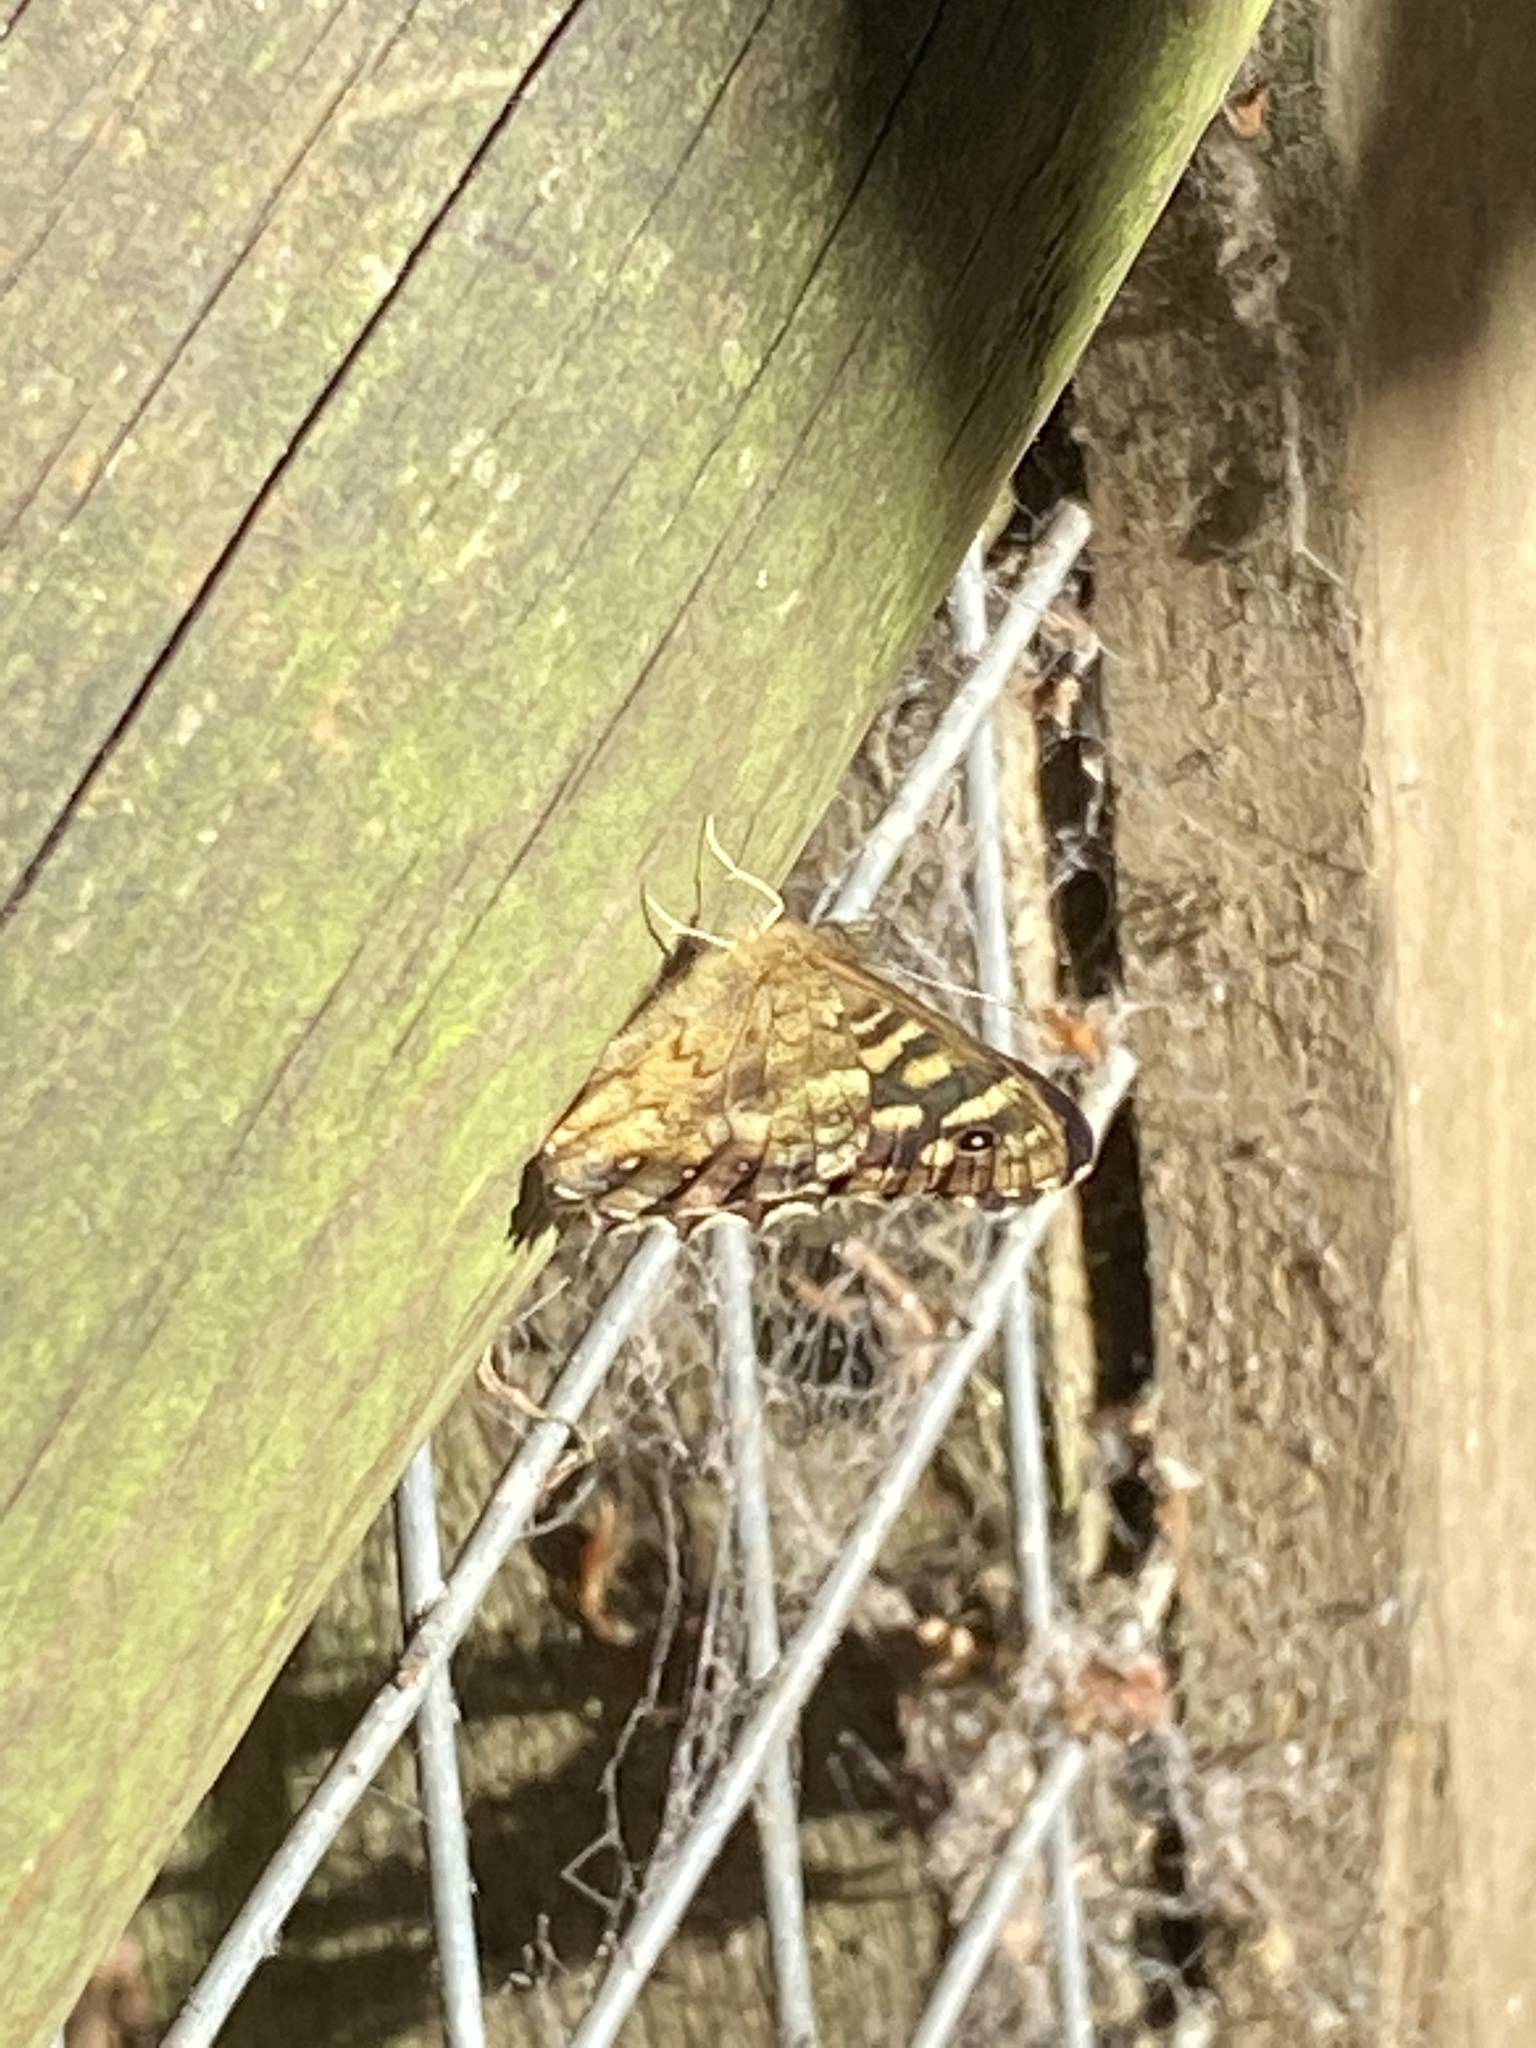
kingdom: Animalia
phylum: Arthropoda
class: Insecta
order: Lepidoptera
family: Nymphalidae
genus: Pararge
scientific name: Pararge aegeria
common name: Speckled wood
